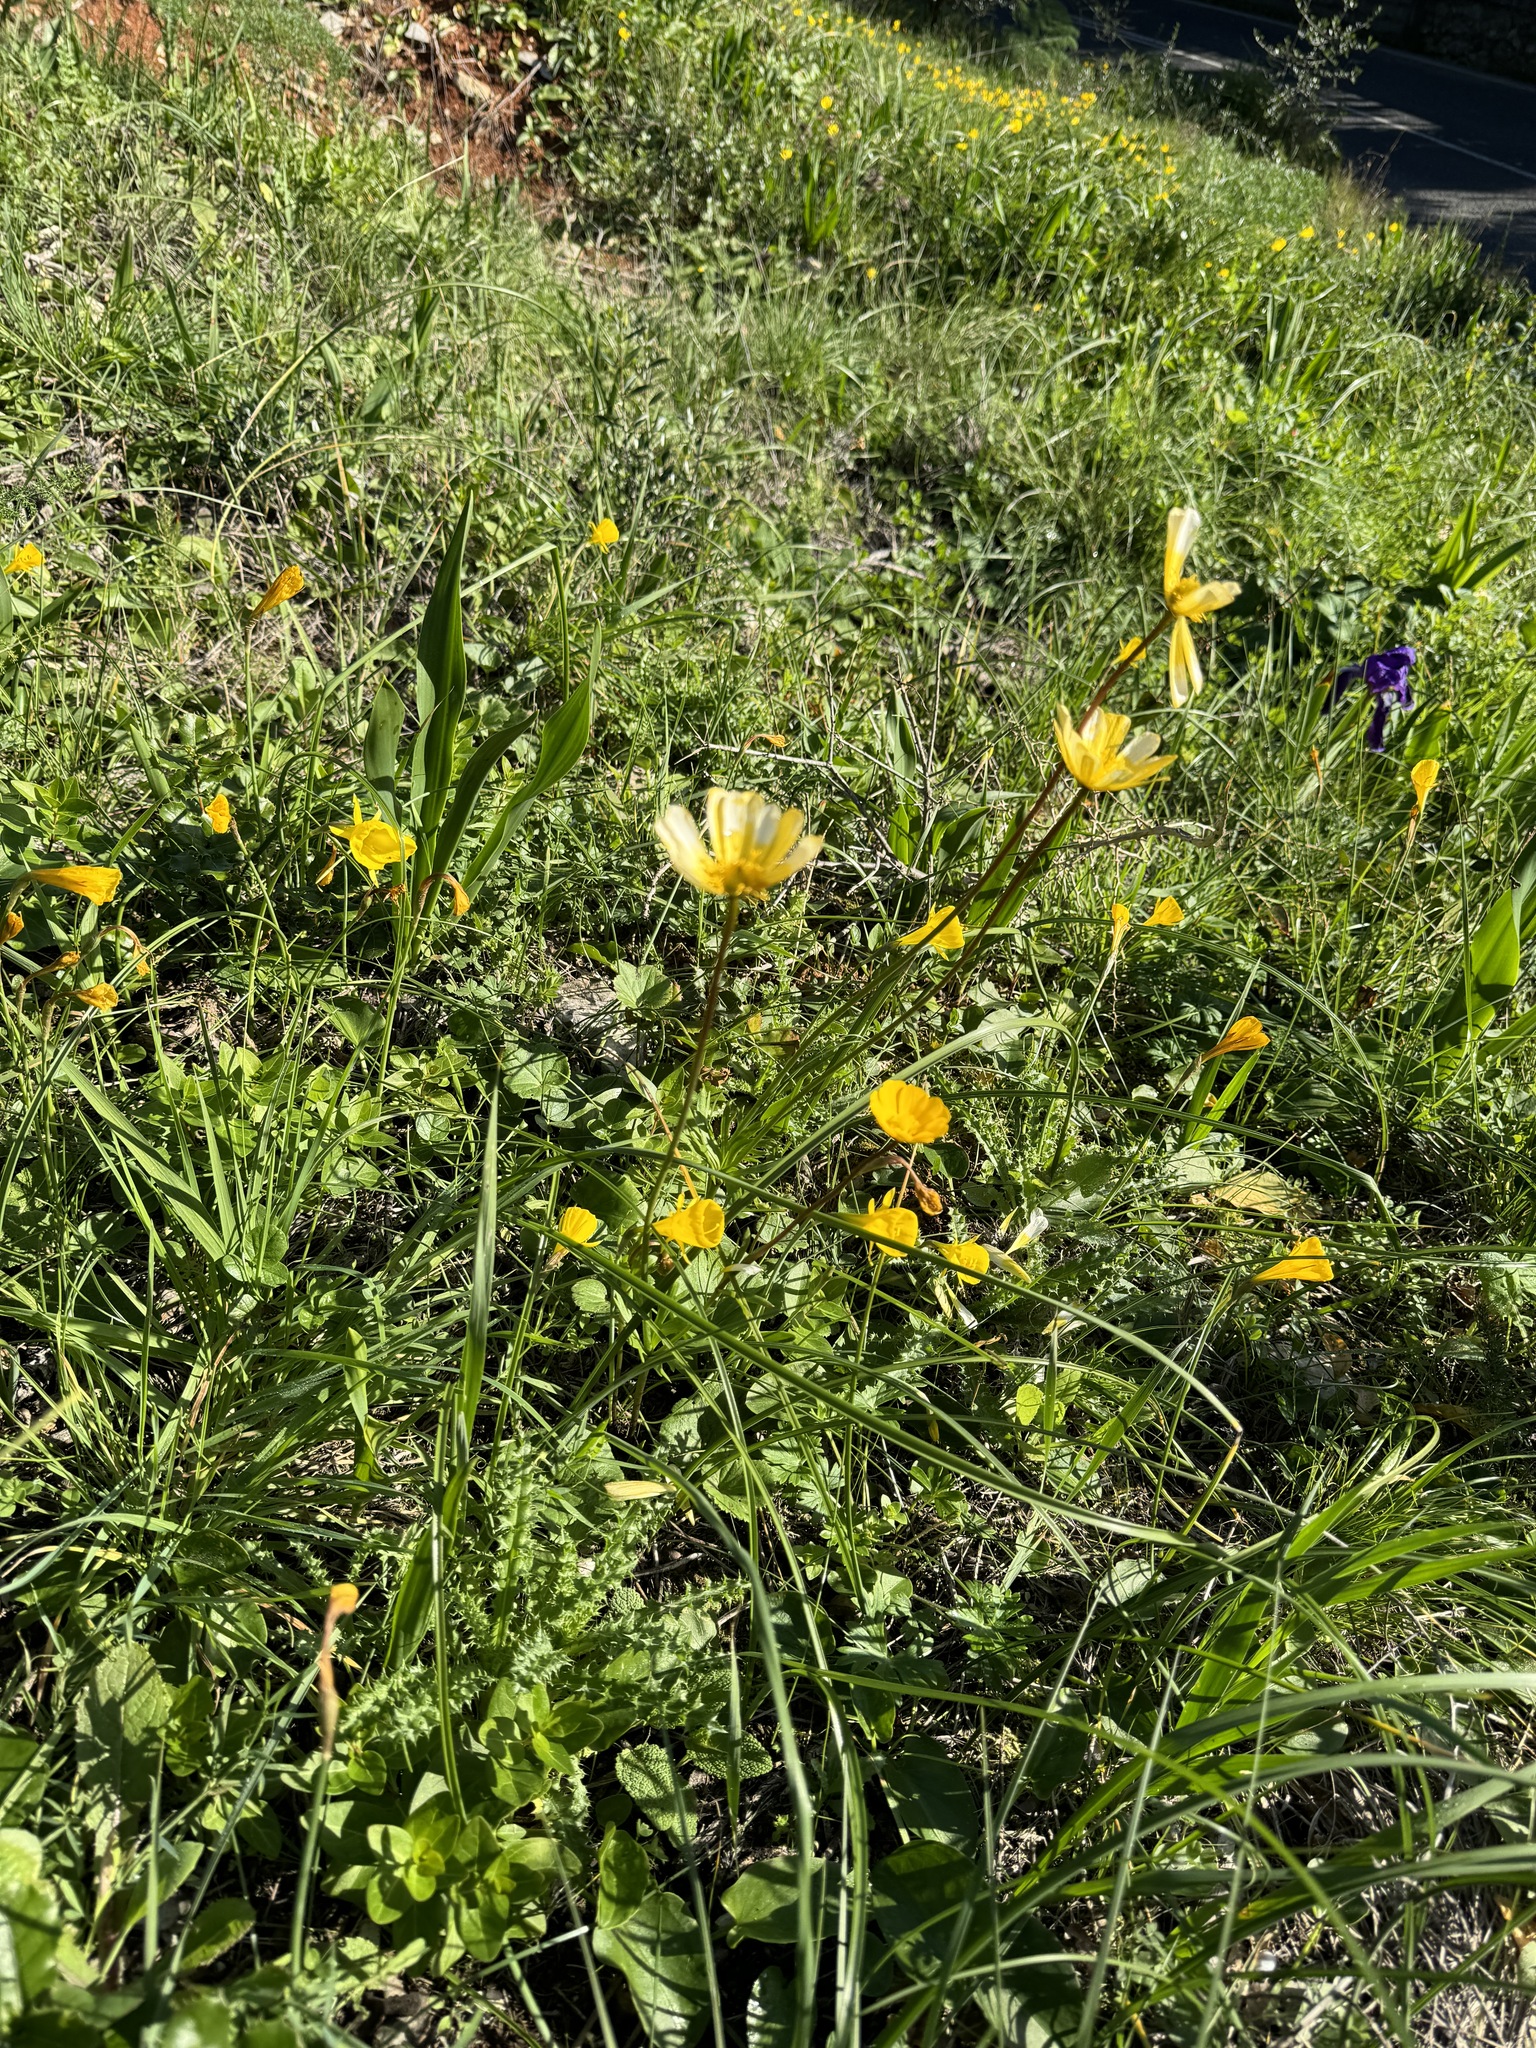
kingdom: Plantae
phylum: Tracheophyta
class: Magnoliopsida
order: Ranunculales
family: Ranunculaceae
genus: Anemone
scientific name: Anemone palmata
